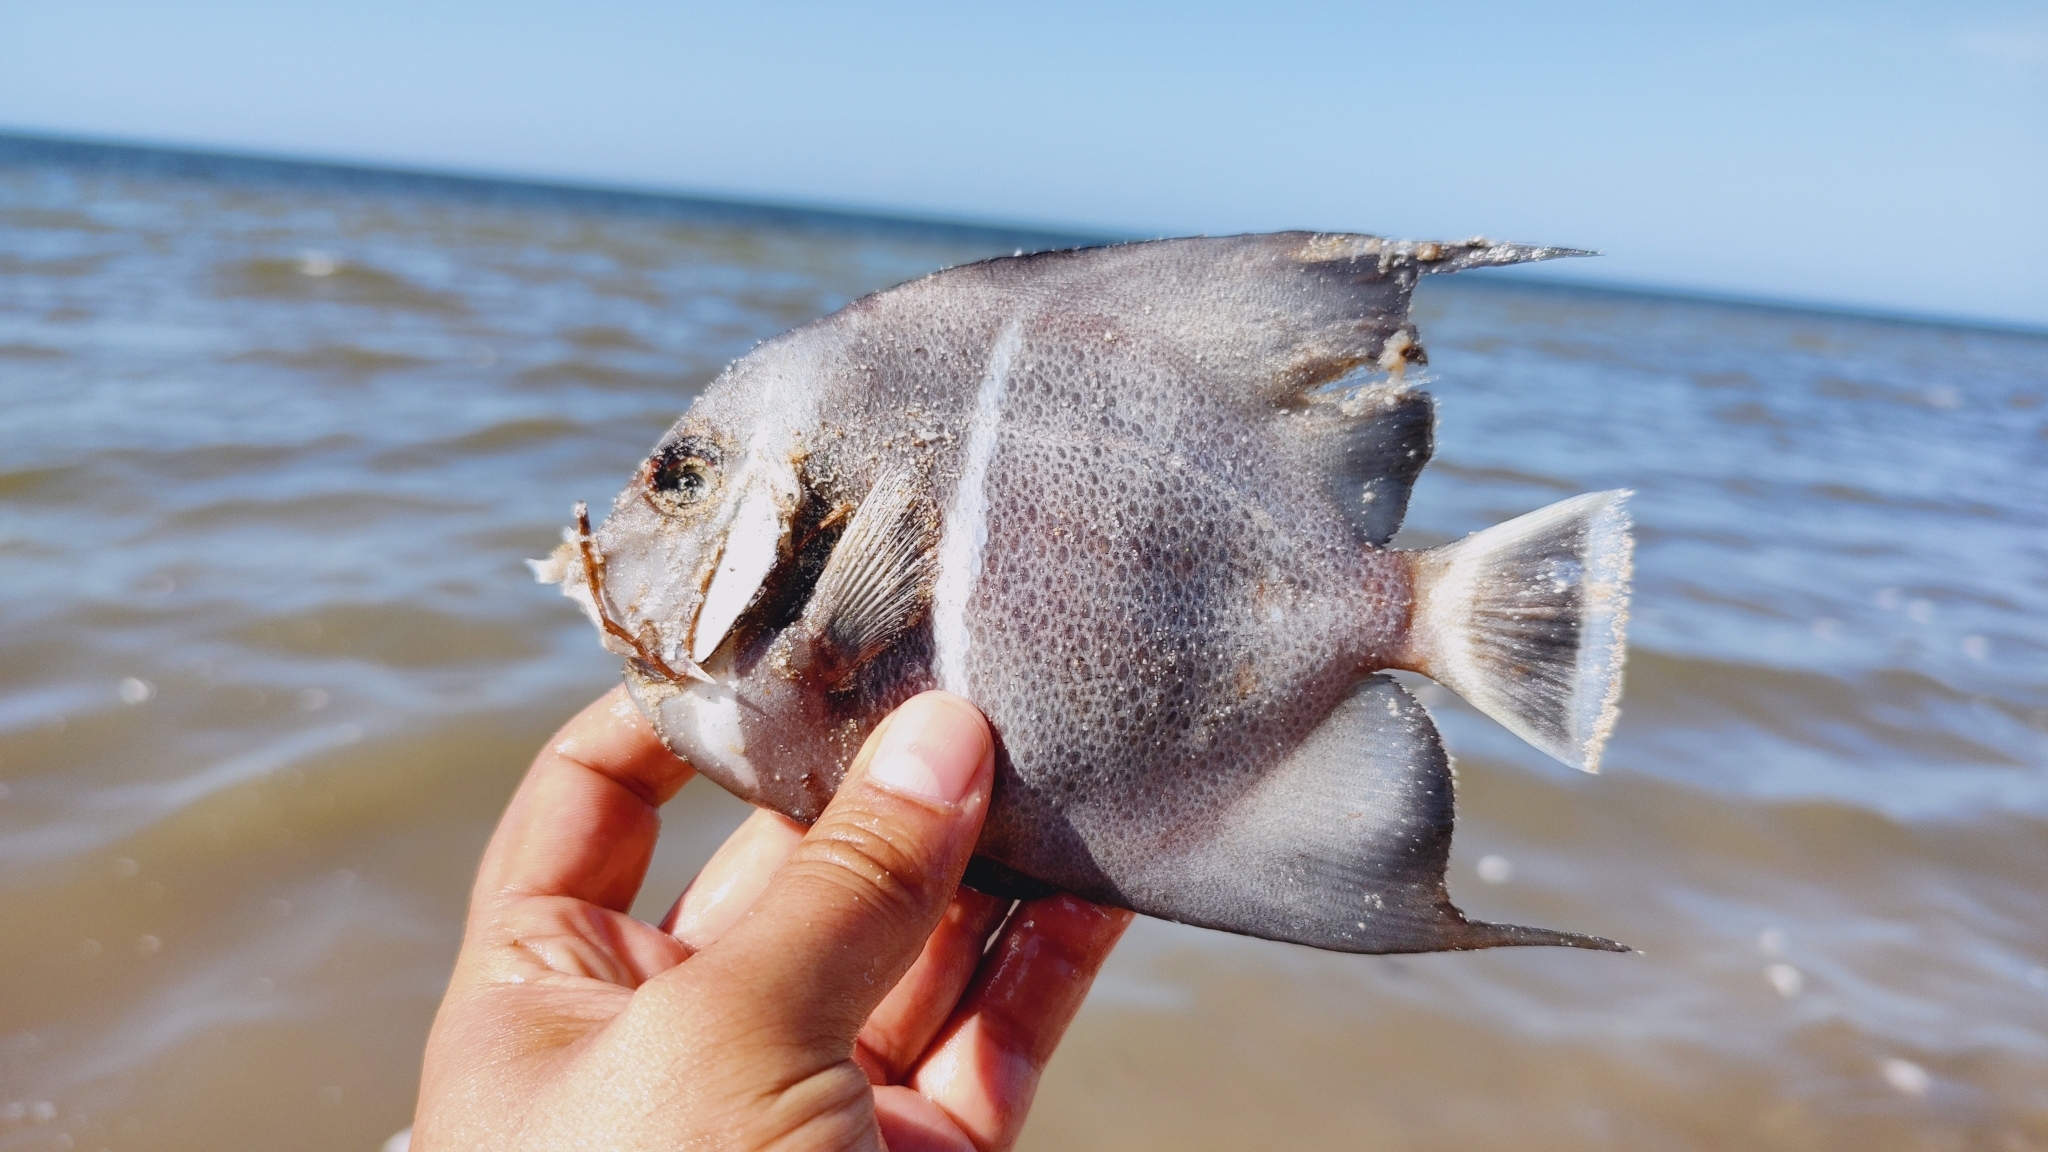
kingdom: Animalia
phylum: Chordata
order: Perciformes
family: Pomacanthidae
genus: Pomacanthus
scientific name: Pomacanthus arcuatus
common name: Gray angelfish
